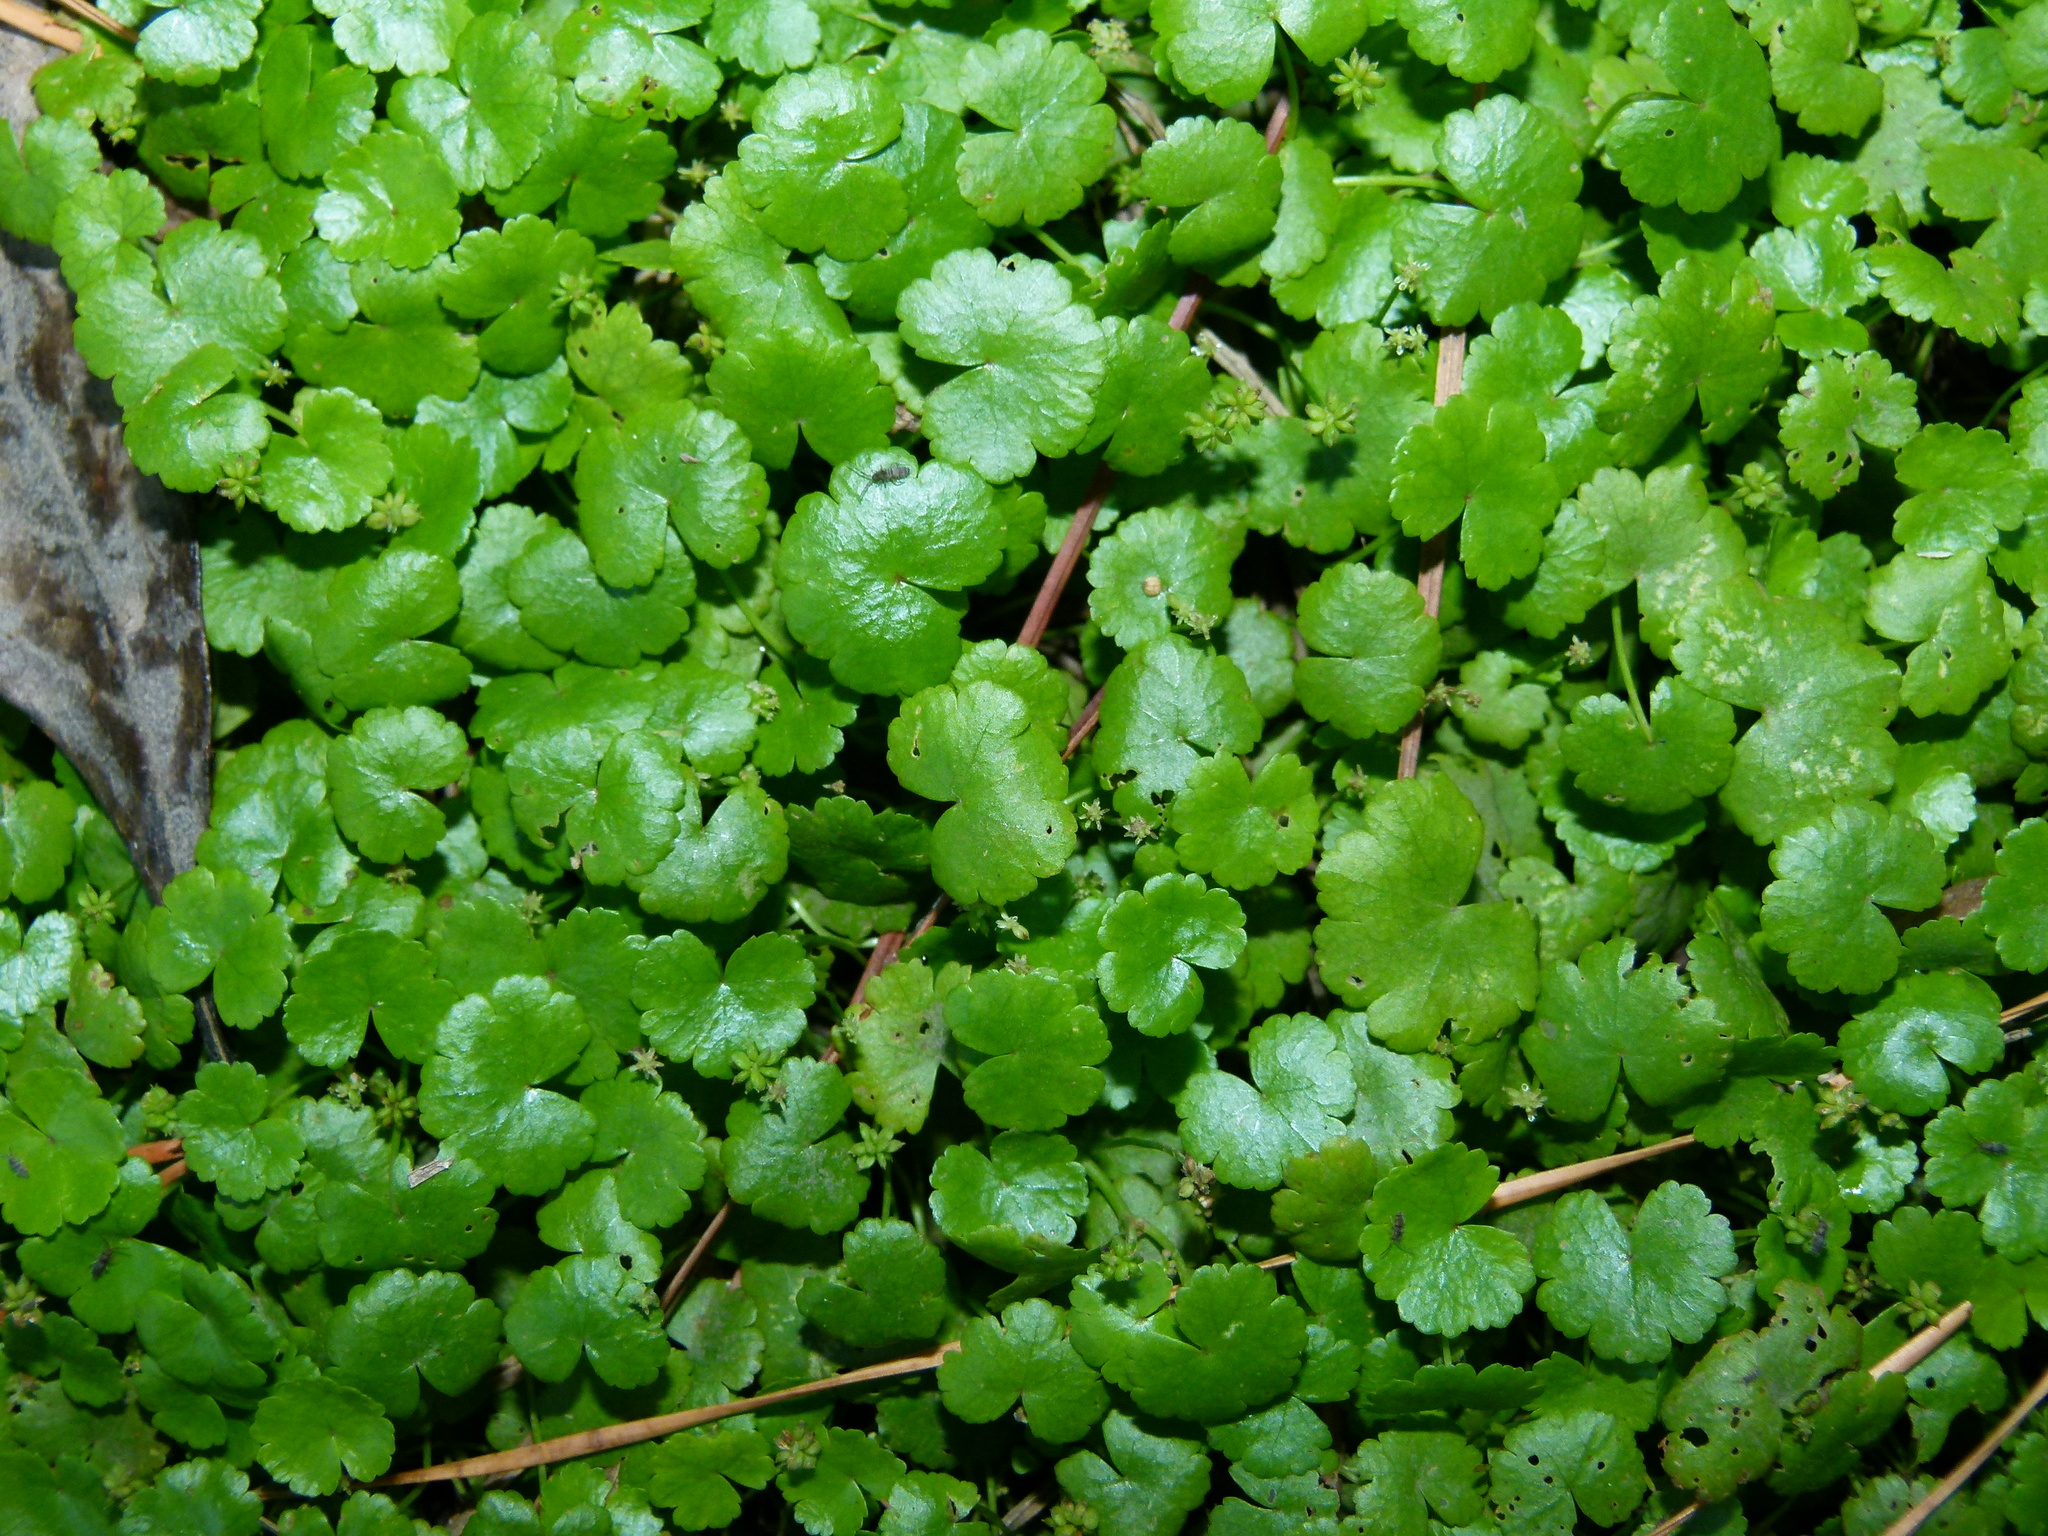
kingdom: Plantae
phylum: Tracheophyta
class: Magnoliopsida
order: Apiales
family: Araliaceae
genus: Hydrocotyle
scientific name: Hydrocotyle sibthorpioides
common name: Lawn marshpennywort
